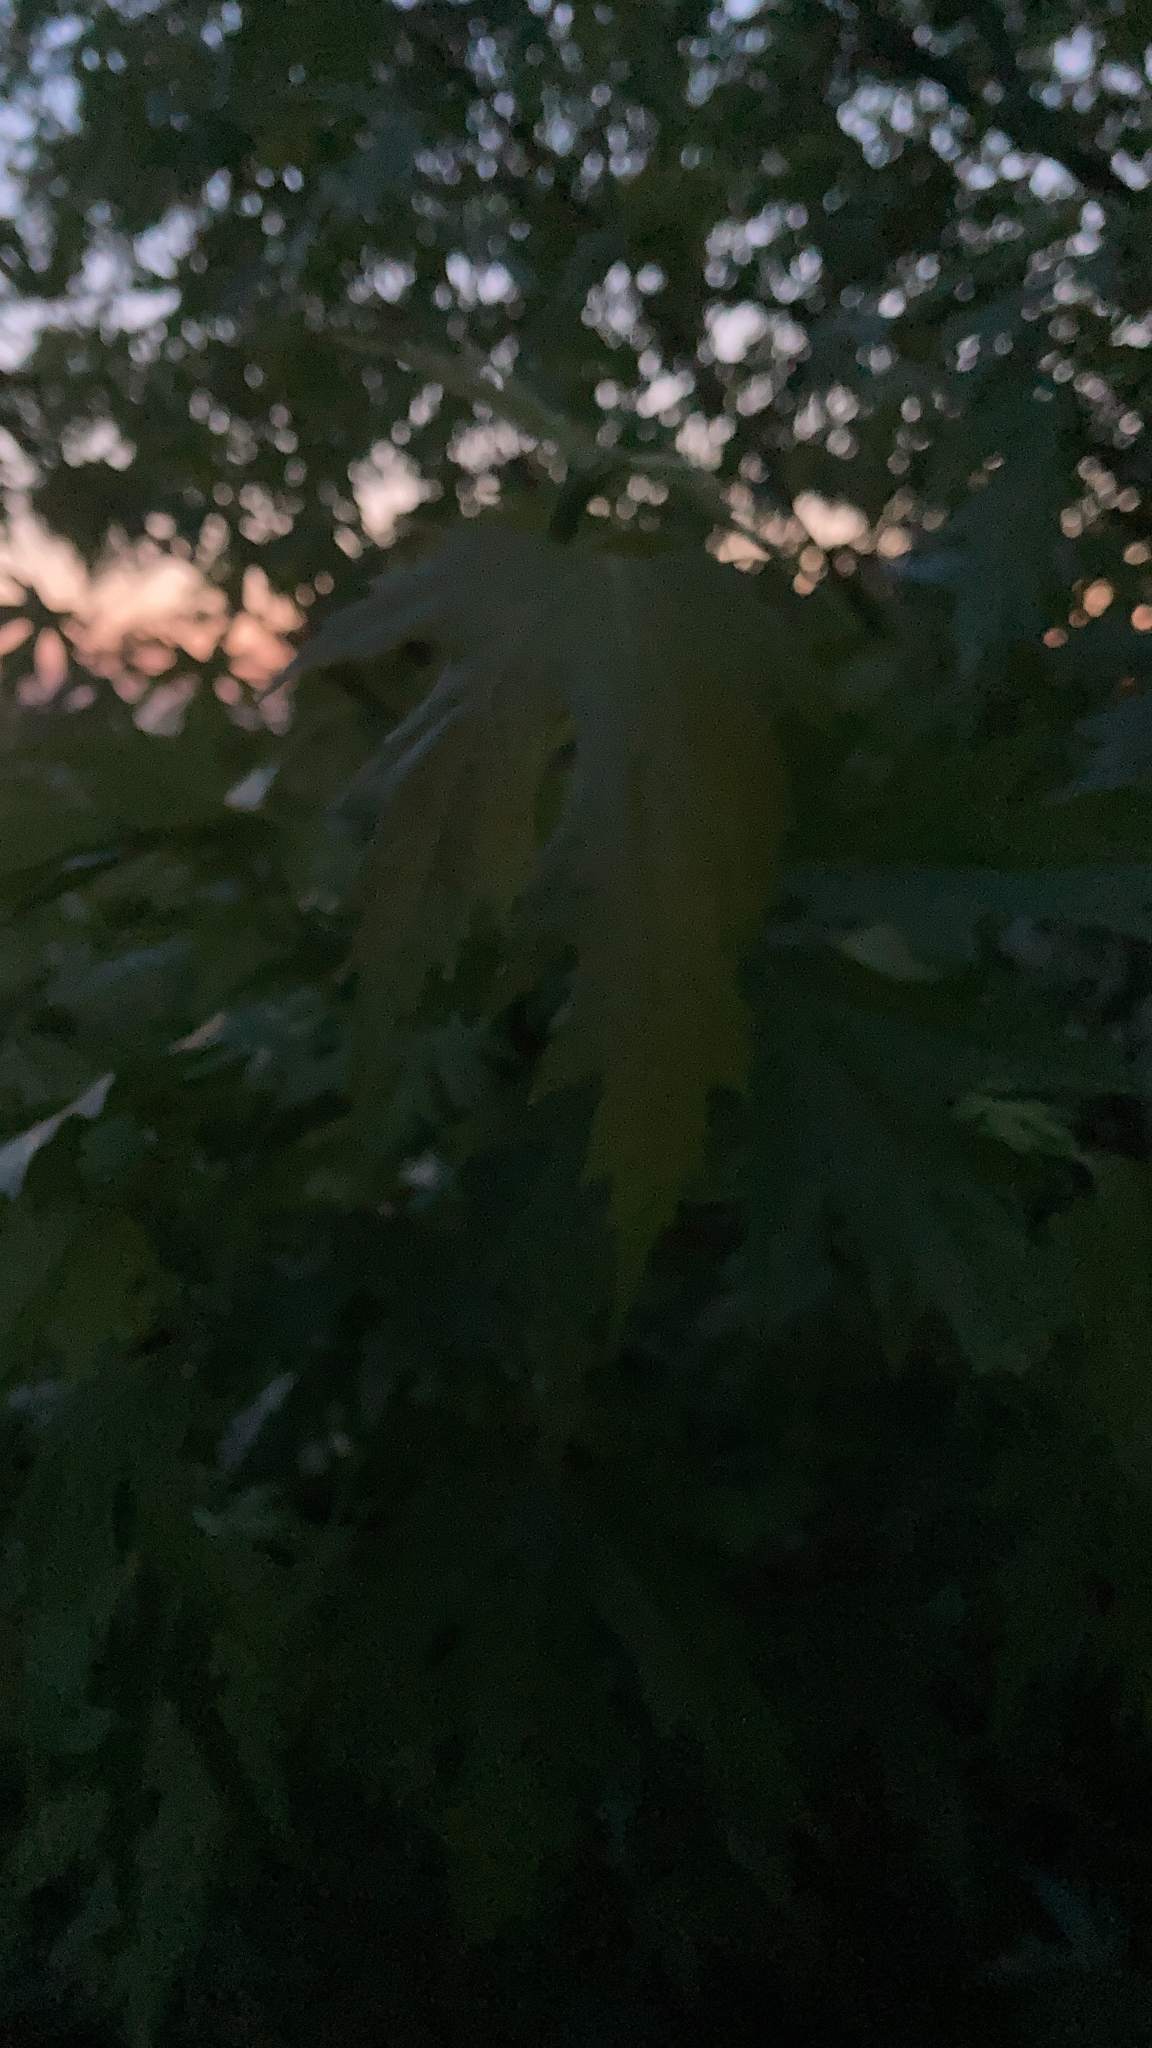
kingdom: Plantae
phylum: Tracheophyta
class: Magnoliopsida
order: Sapindales
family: Sapindaceae
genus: Acer
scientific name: Acer saccharinum
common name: Silver maple
